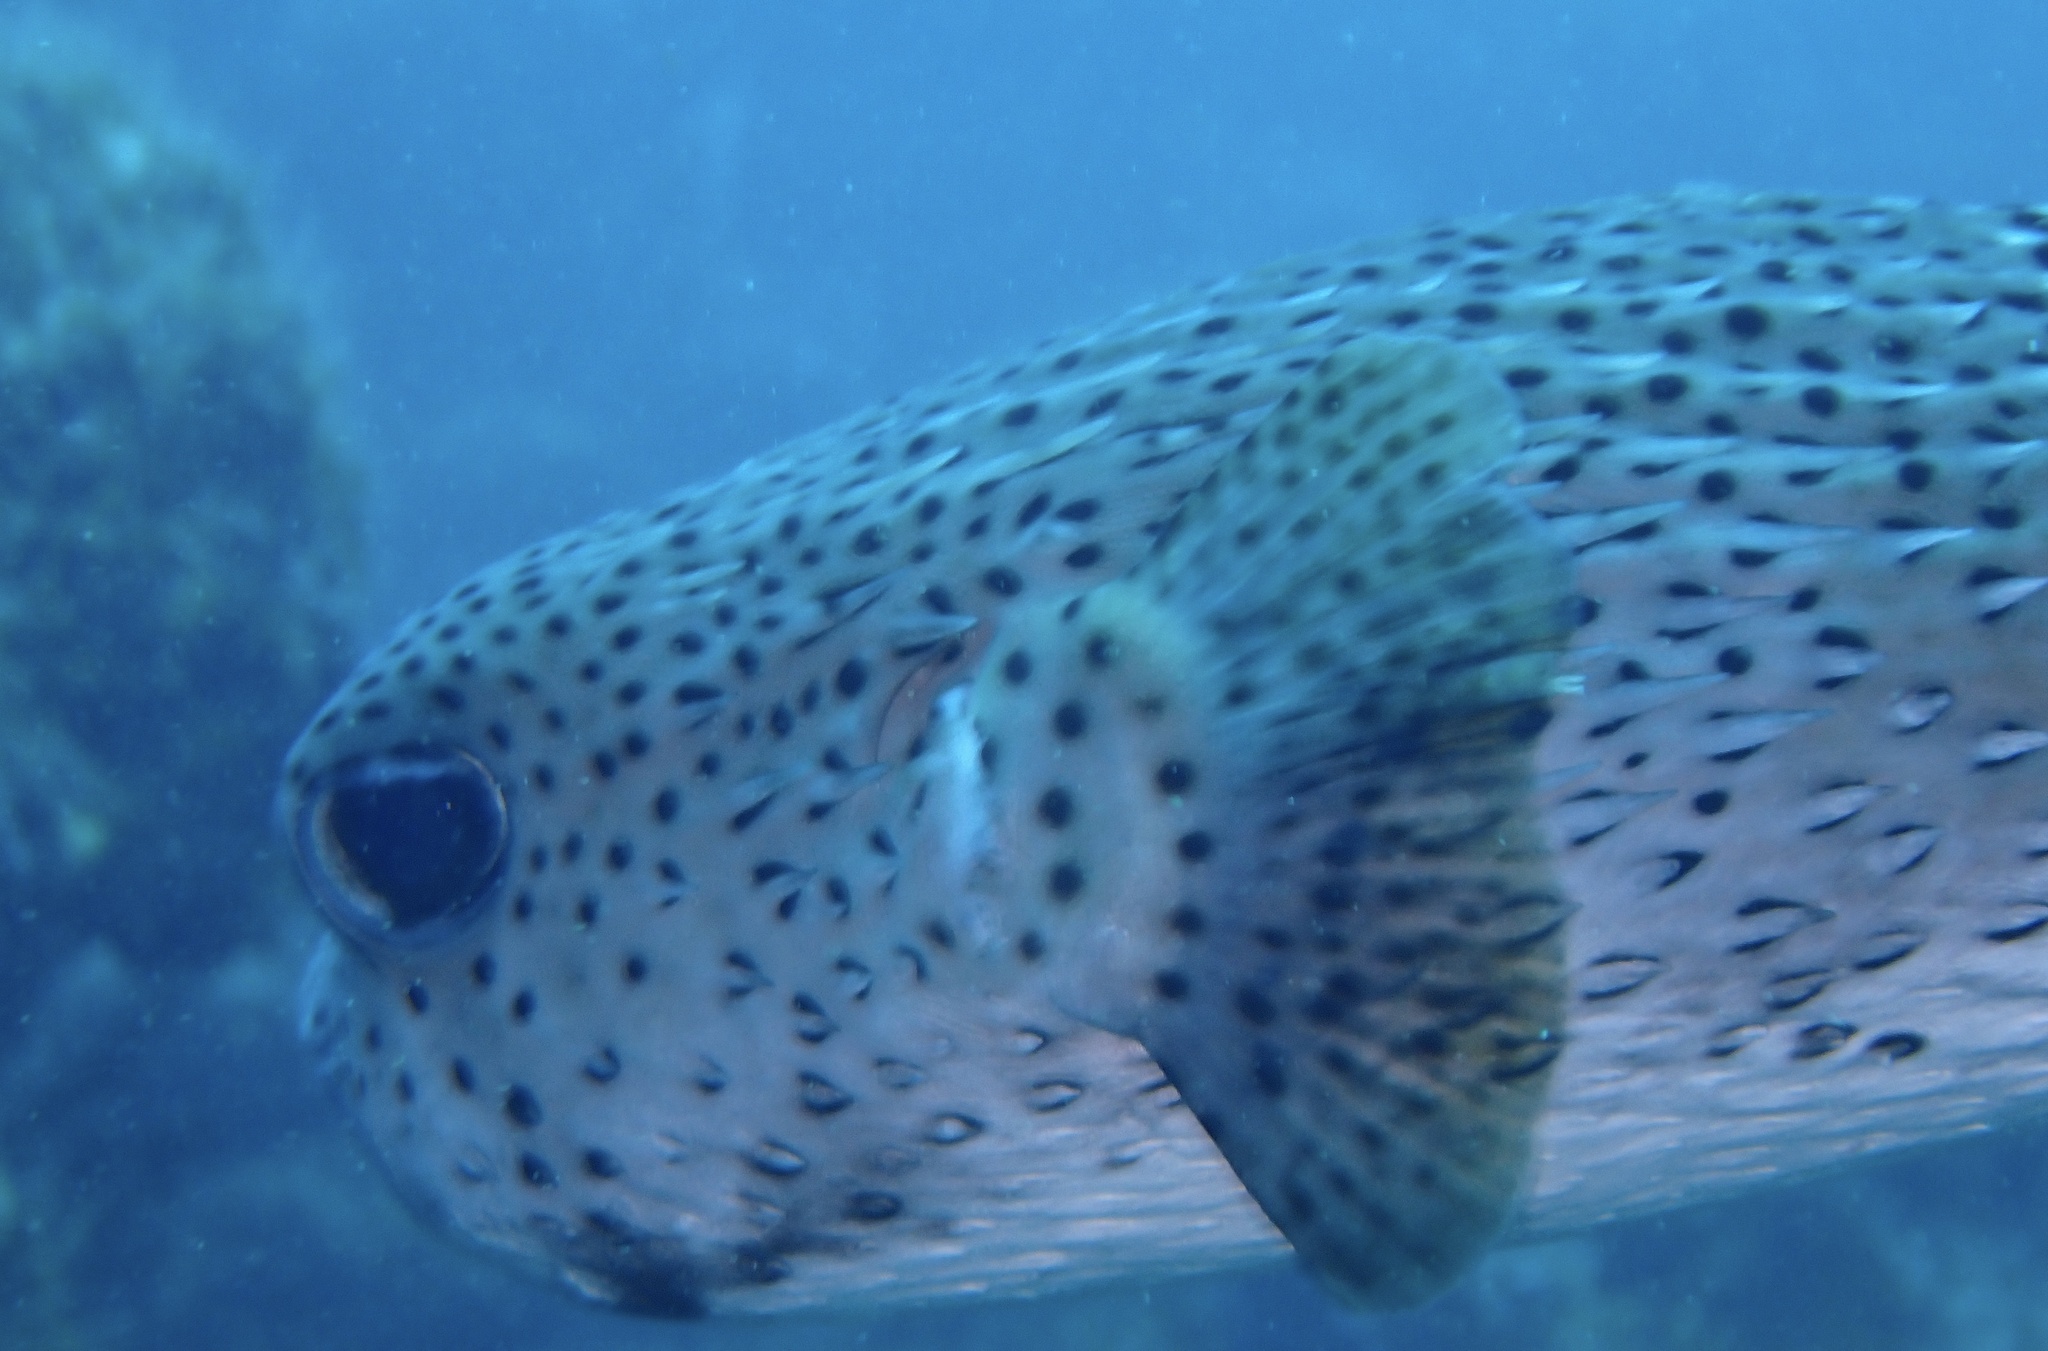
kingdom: Animalia
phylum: Chordata
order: Tetraodontiformes
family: Diodontidae
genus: Diodon
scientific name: Diodon hystrix
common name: Giant porcupinefish
